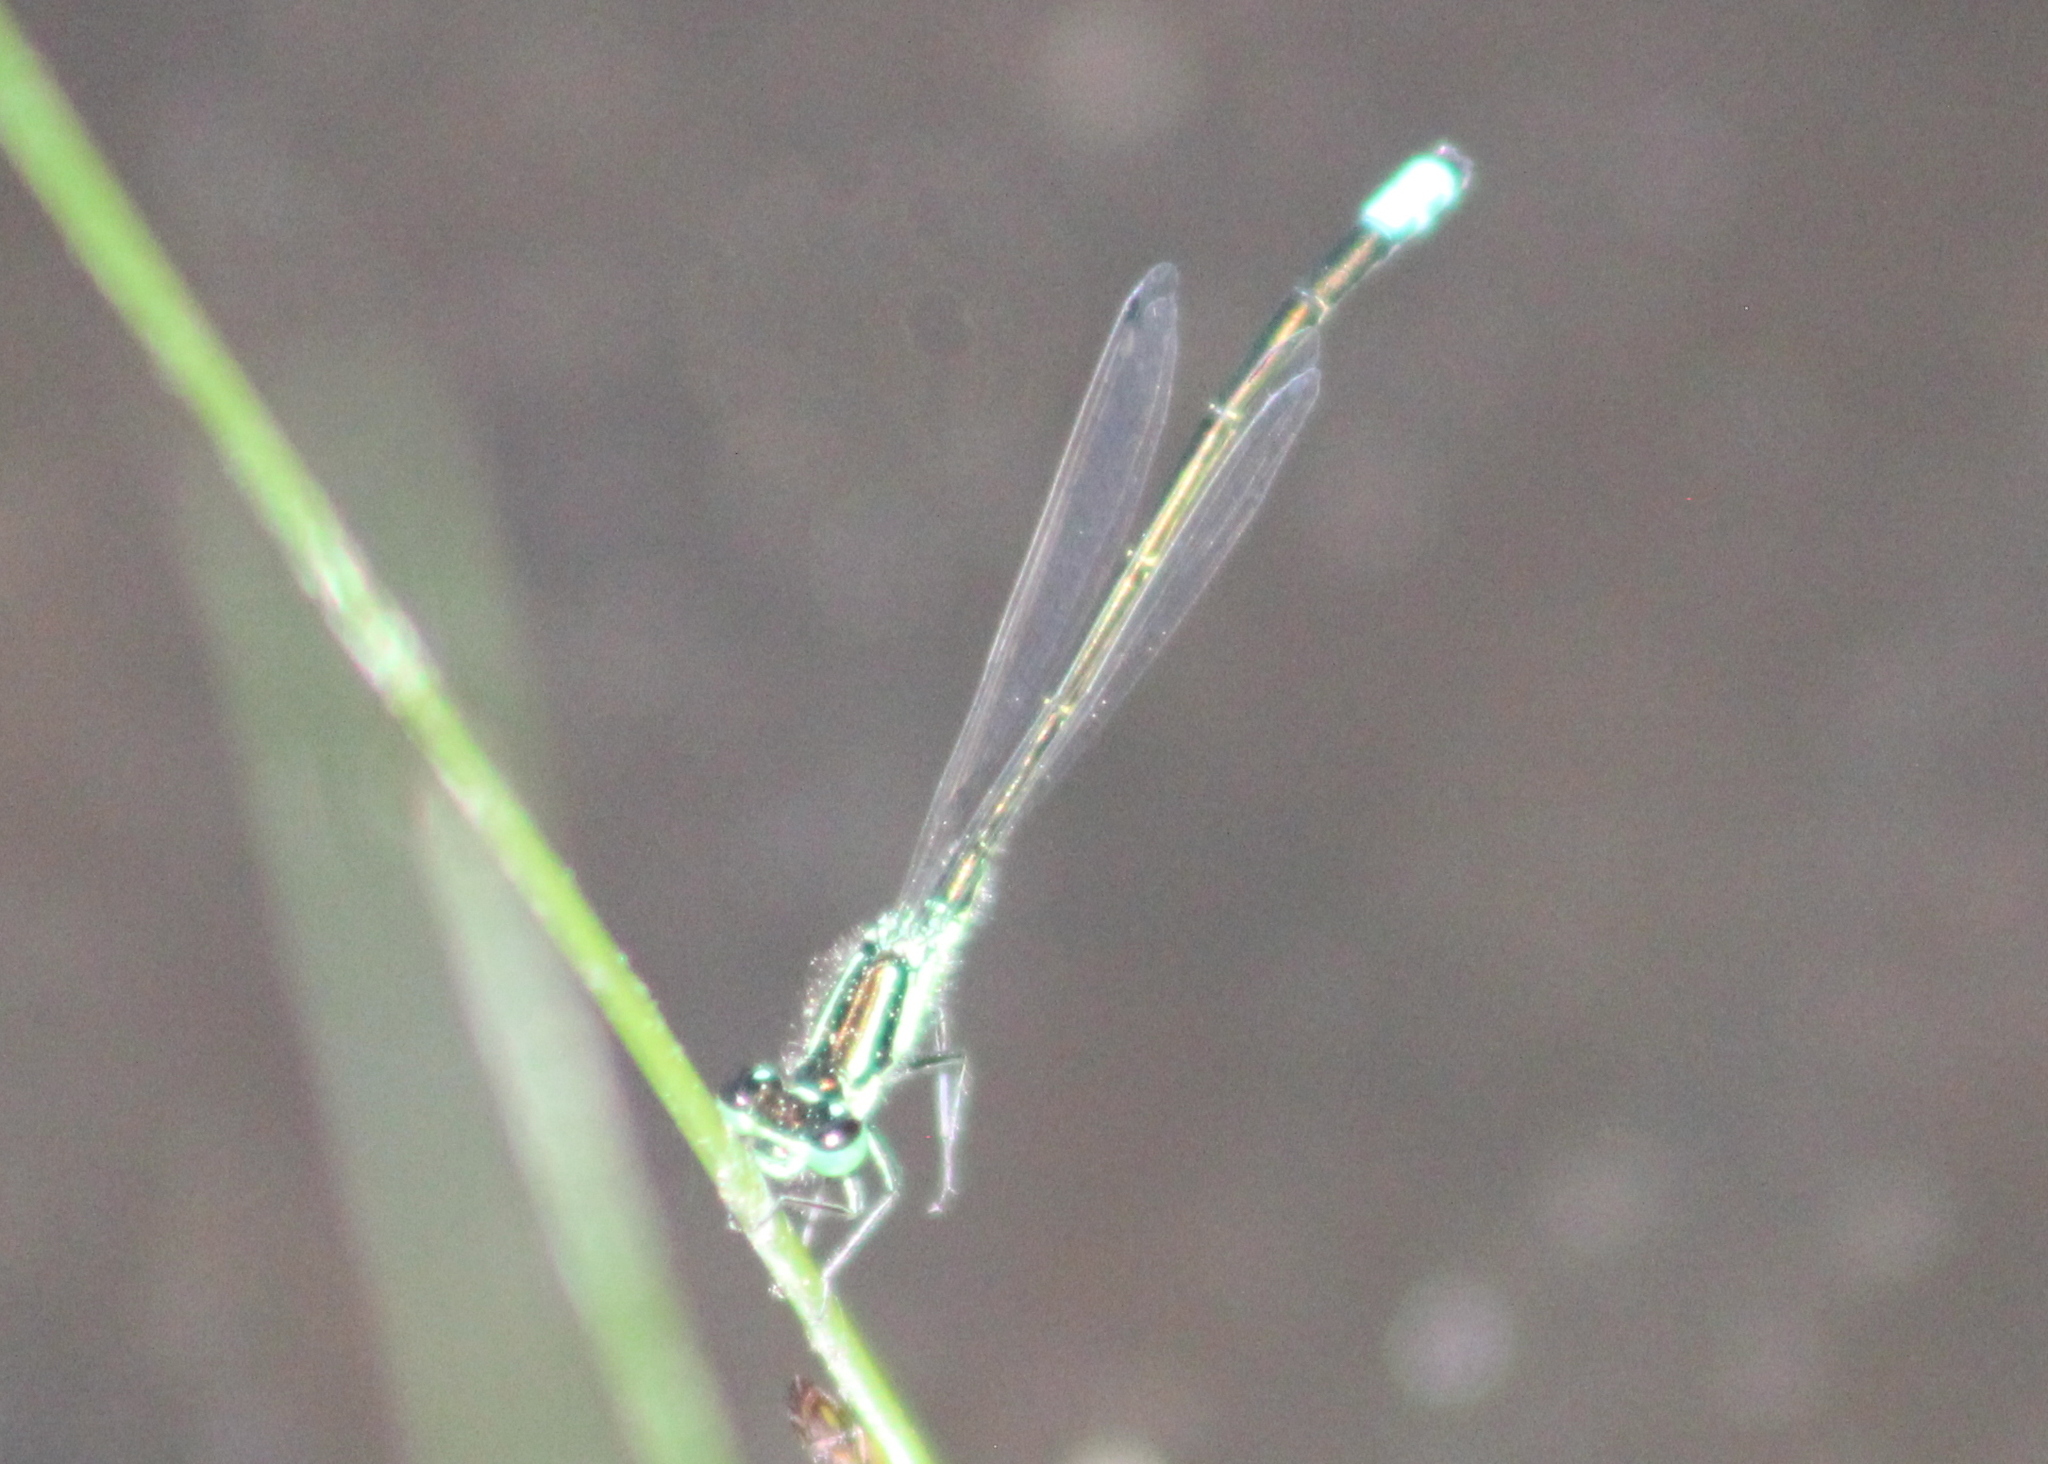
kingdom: Animalia
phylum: Arthropoda
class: Insecta
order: Odonata
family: Coenagrionidae
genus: Ischnura
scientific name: Ischnura verticalis
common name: Eastern forktail
